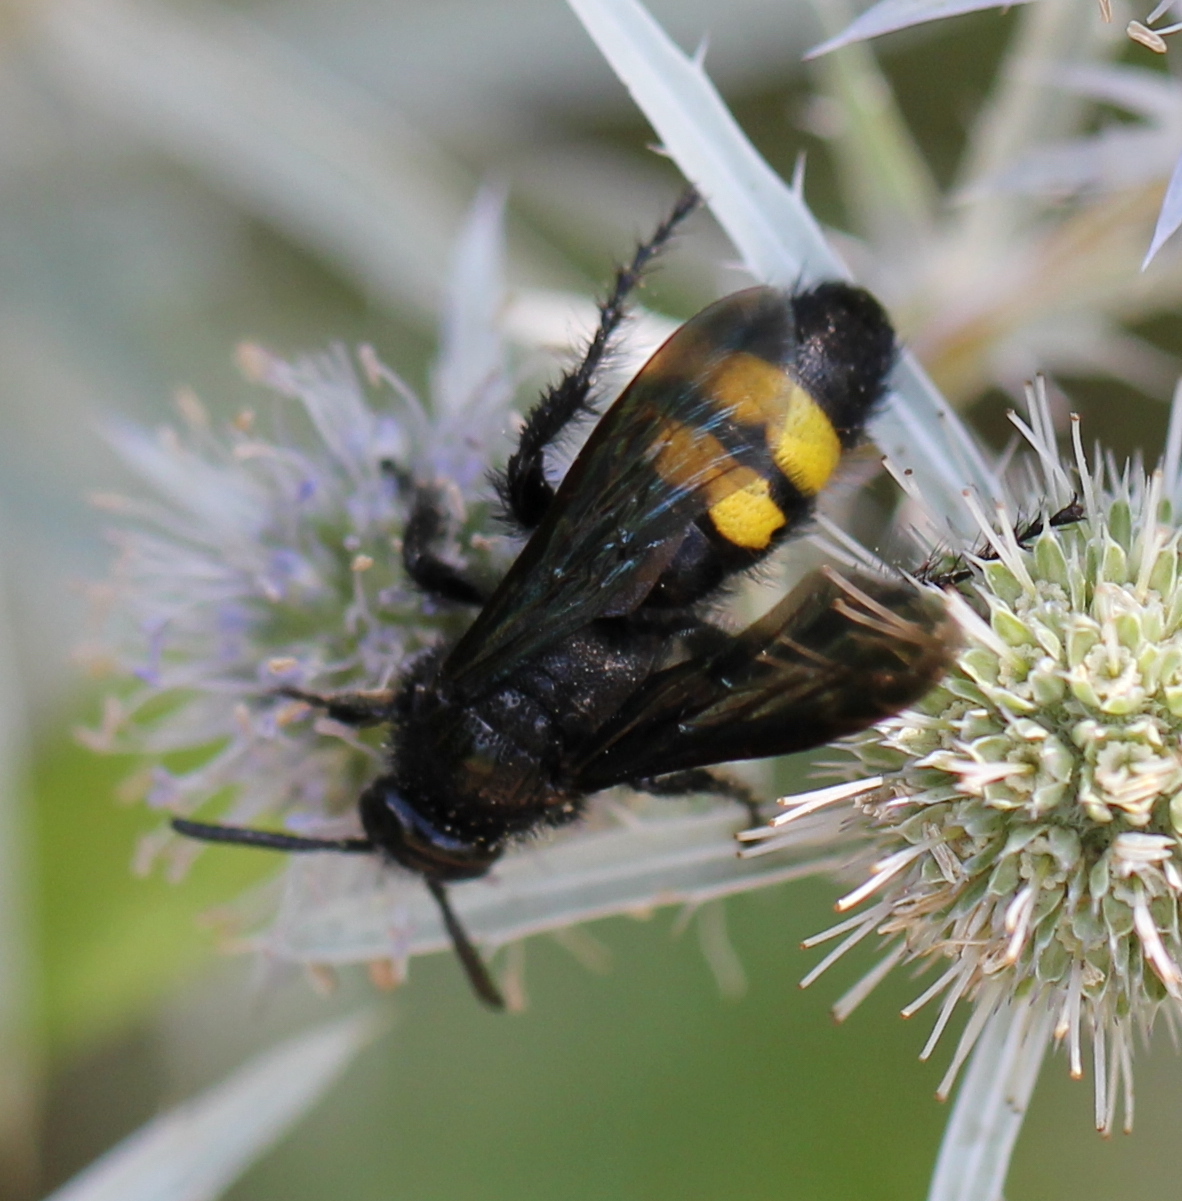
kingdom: Animalia
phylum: Arthropoda
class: Insecta
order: Hymenoptera
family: Scoliidae
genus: Scolia
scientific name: Scolia hirta
